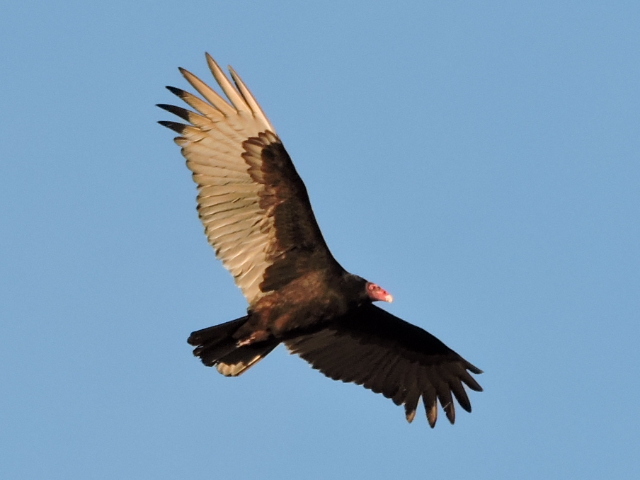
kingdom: Animalia
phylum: Chordata
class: Aves
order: Accipitriformes
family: Cathartidae
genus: Cathartes
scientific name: Cathartes aura
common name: Turkey vulture
